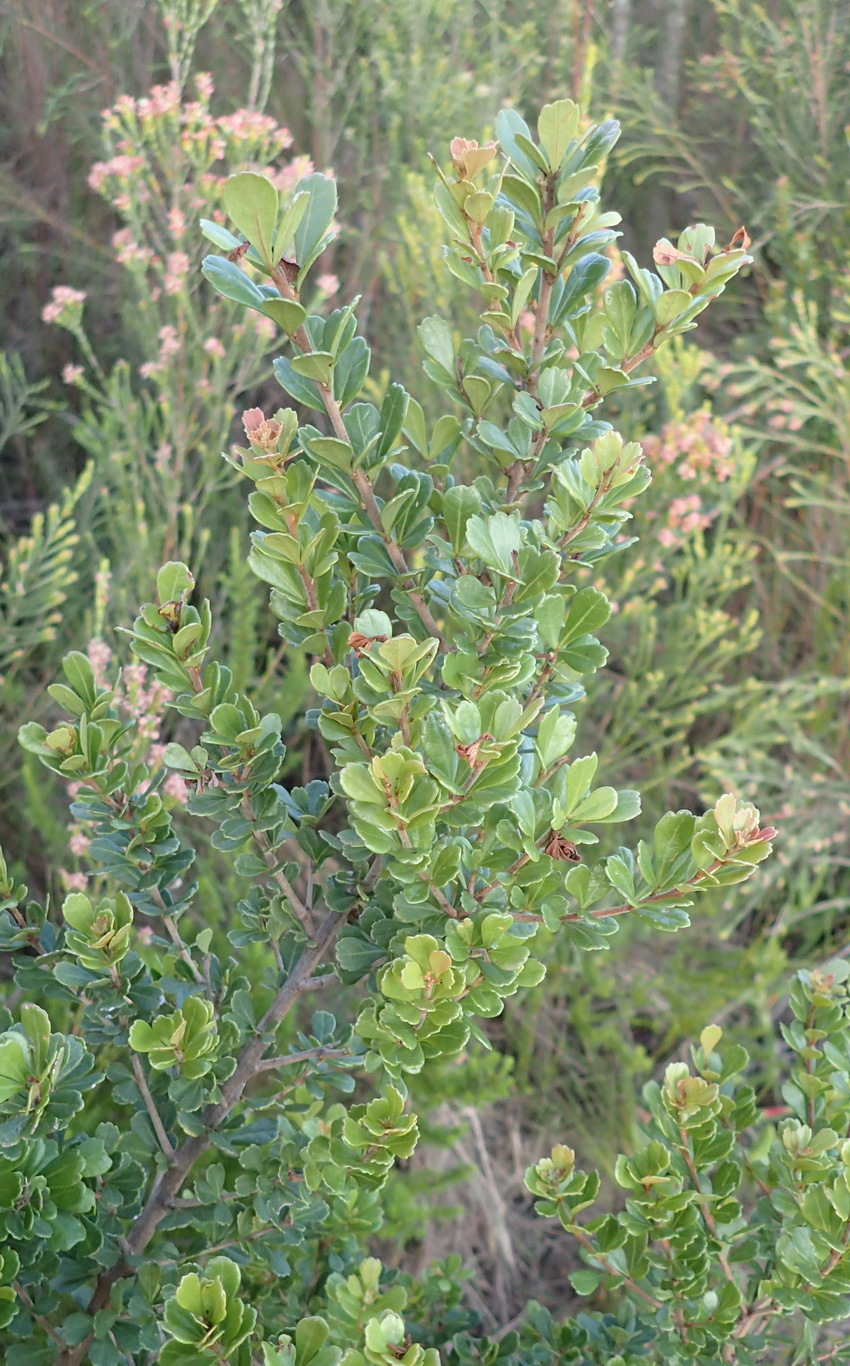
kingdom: Plantae
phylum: Tracheophyta
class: Magnoliopsida
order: Sapindales
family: Anacardiaceae
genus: Searsia
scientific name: Searsia crenata
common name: Crowberry
